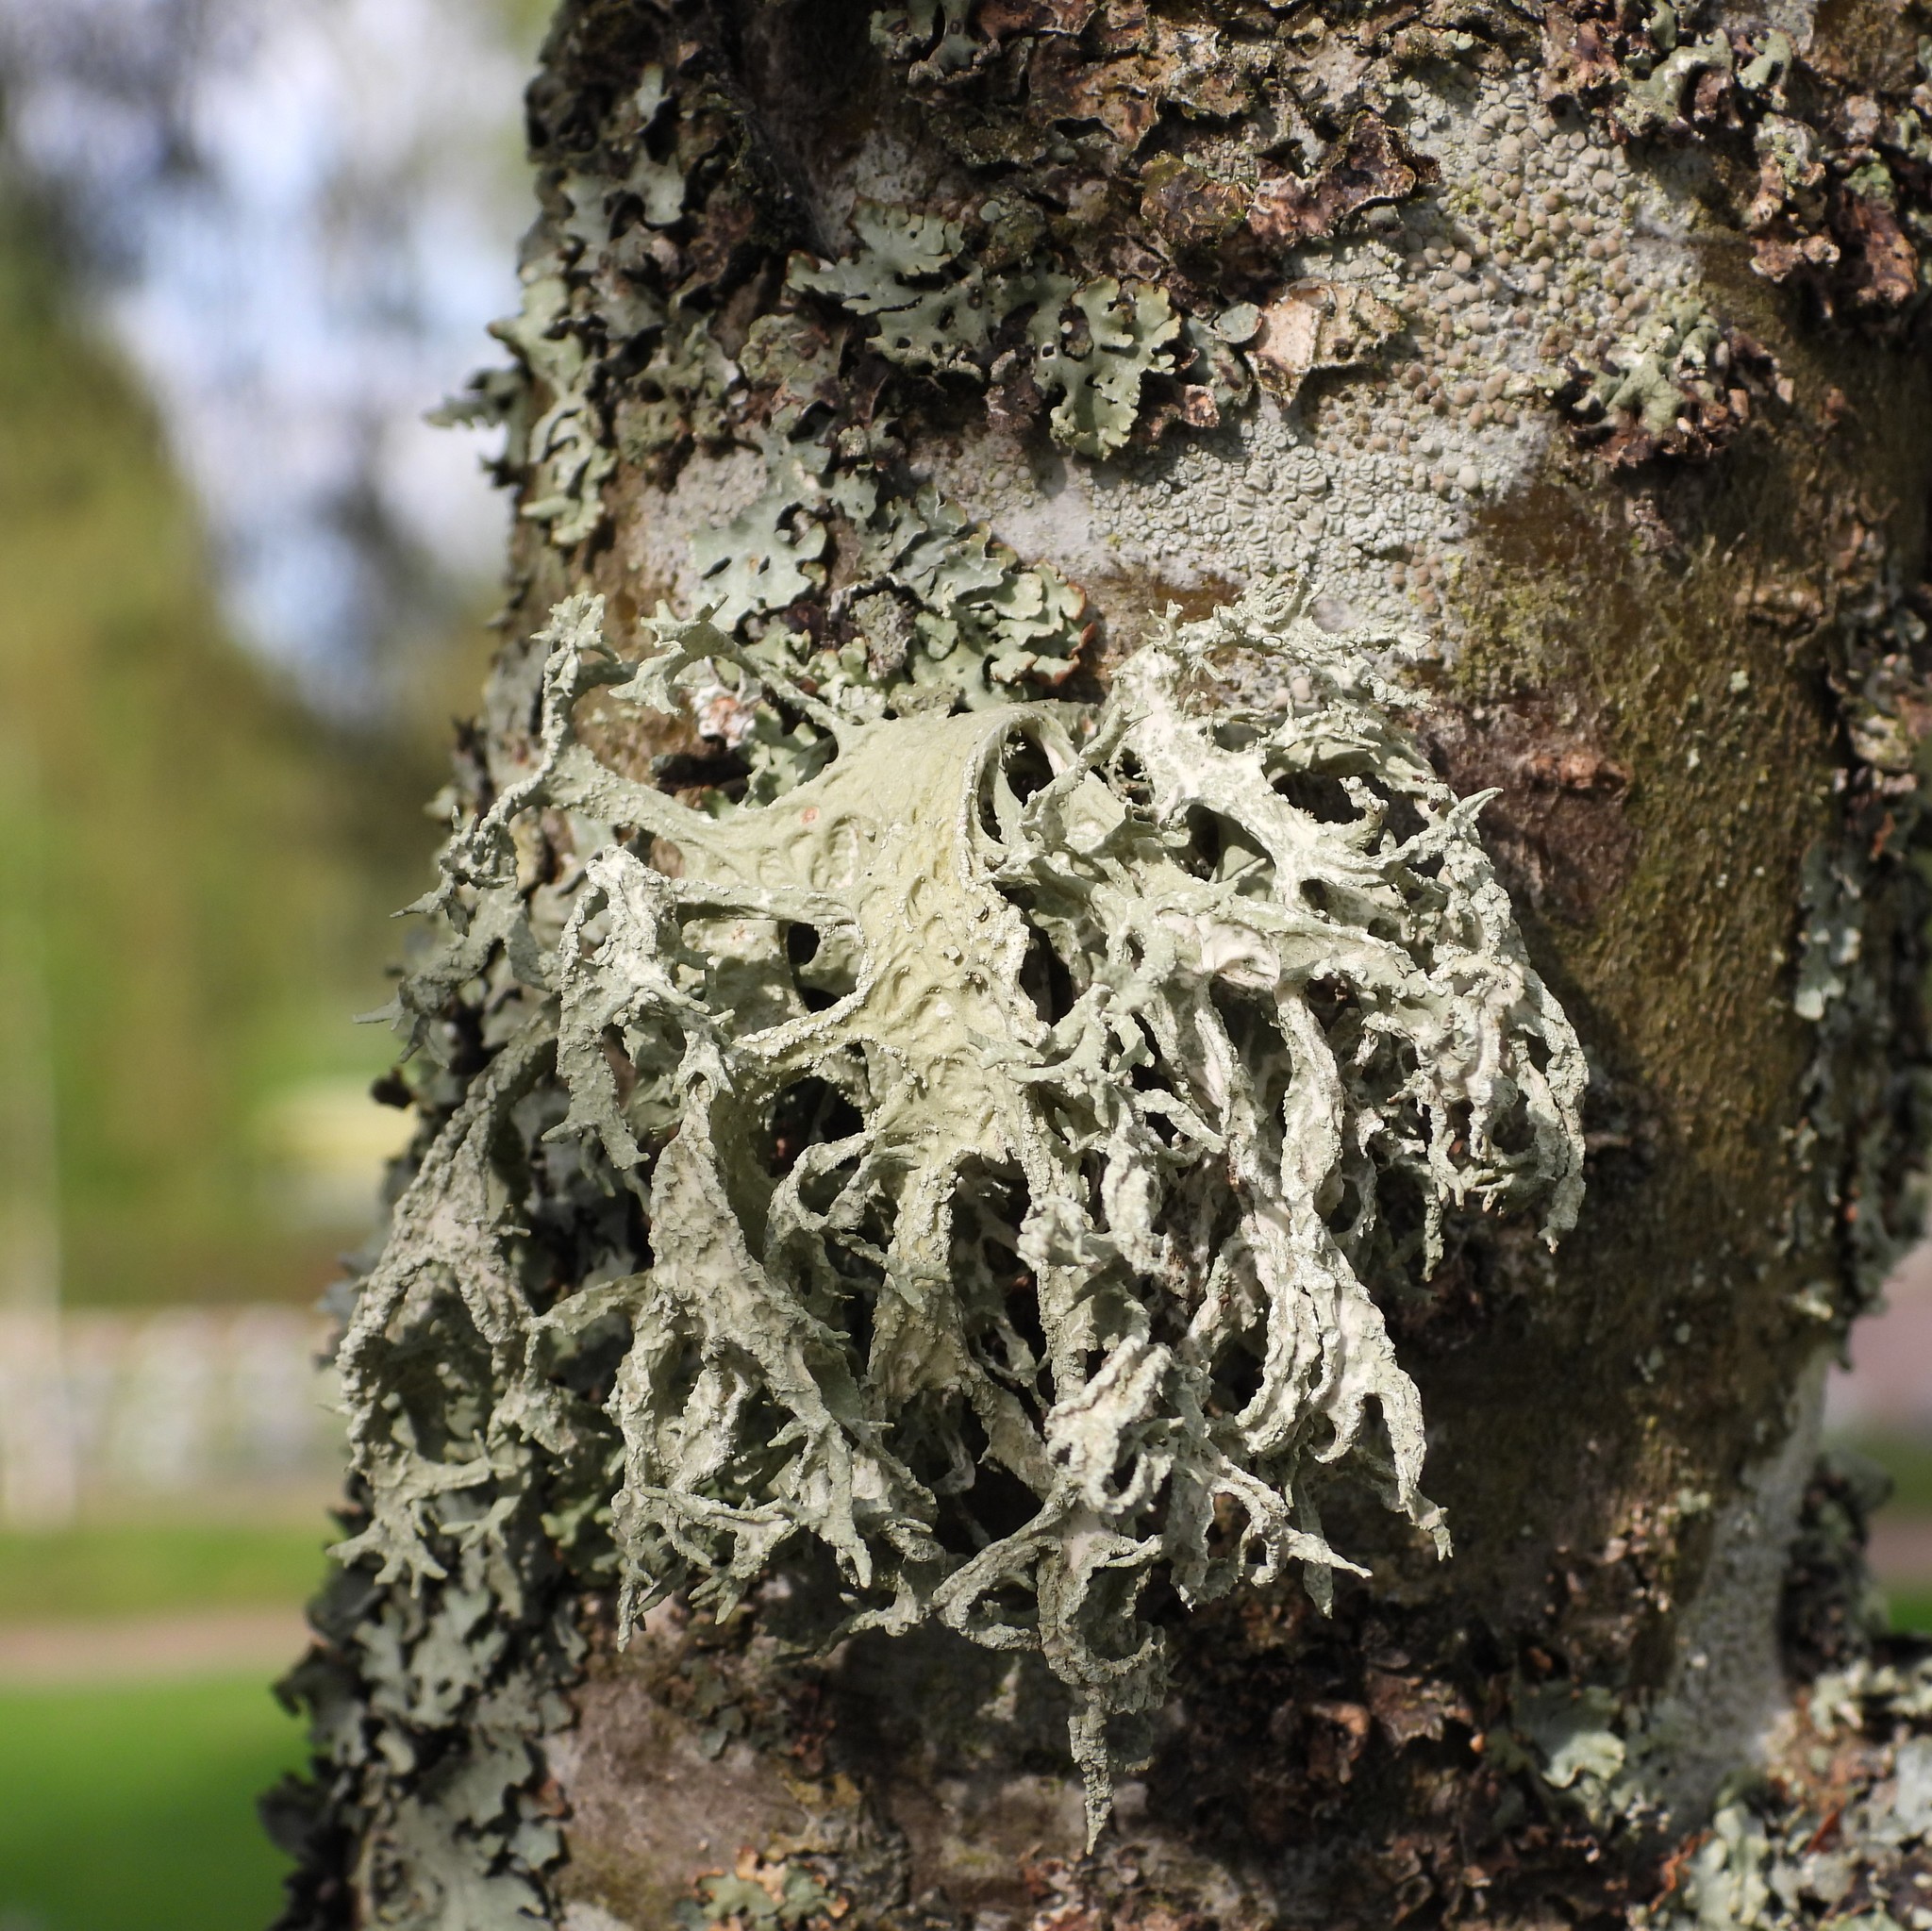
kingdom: Fungi
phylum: Ascomycota
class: Lecanoromycetes
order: Lecanorales
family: Parmeliaceae
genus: Evernia
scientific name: Evernia prunastri
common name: Oak moss
